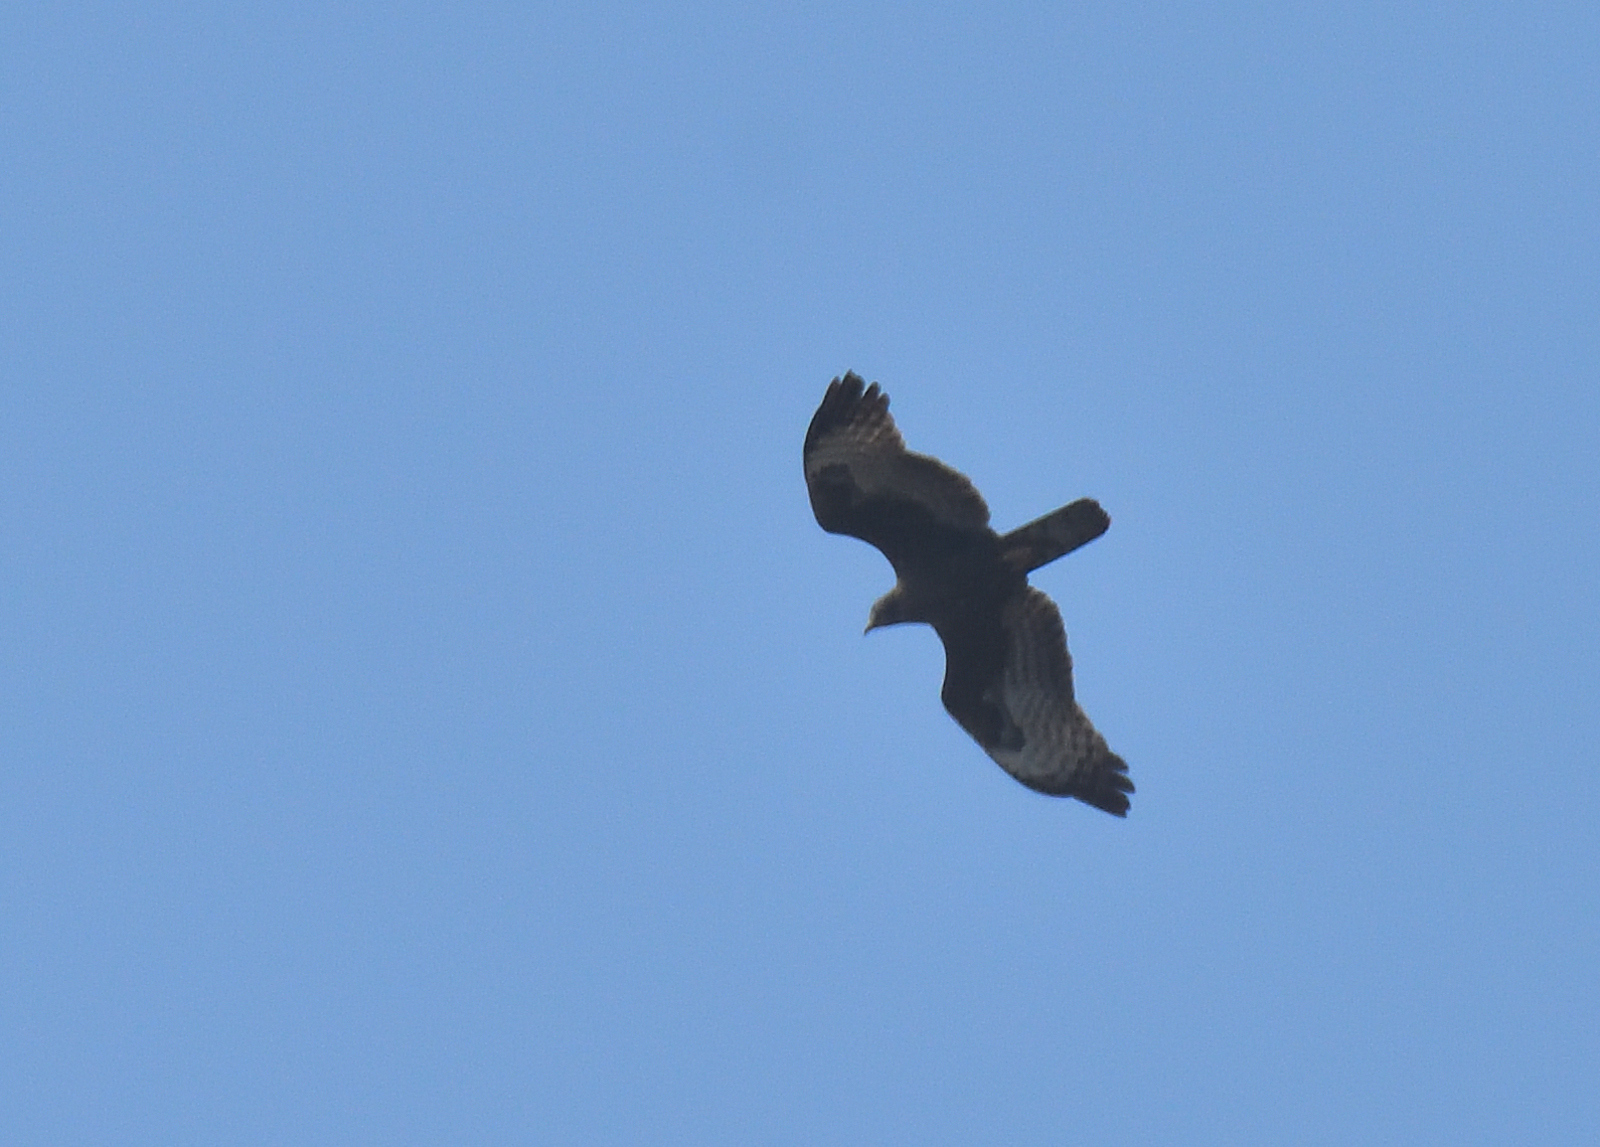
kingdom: Animalia
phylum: Chordata
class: Aves
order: Accipitriformes
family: Accipitridae
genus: Pernis
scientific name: Pernis ptilorhynchus
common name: Crested honey buzzard
